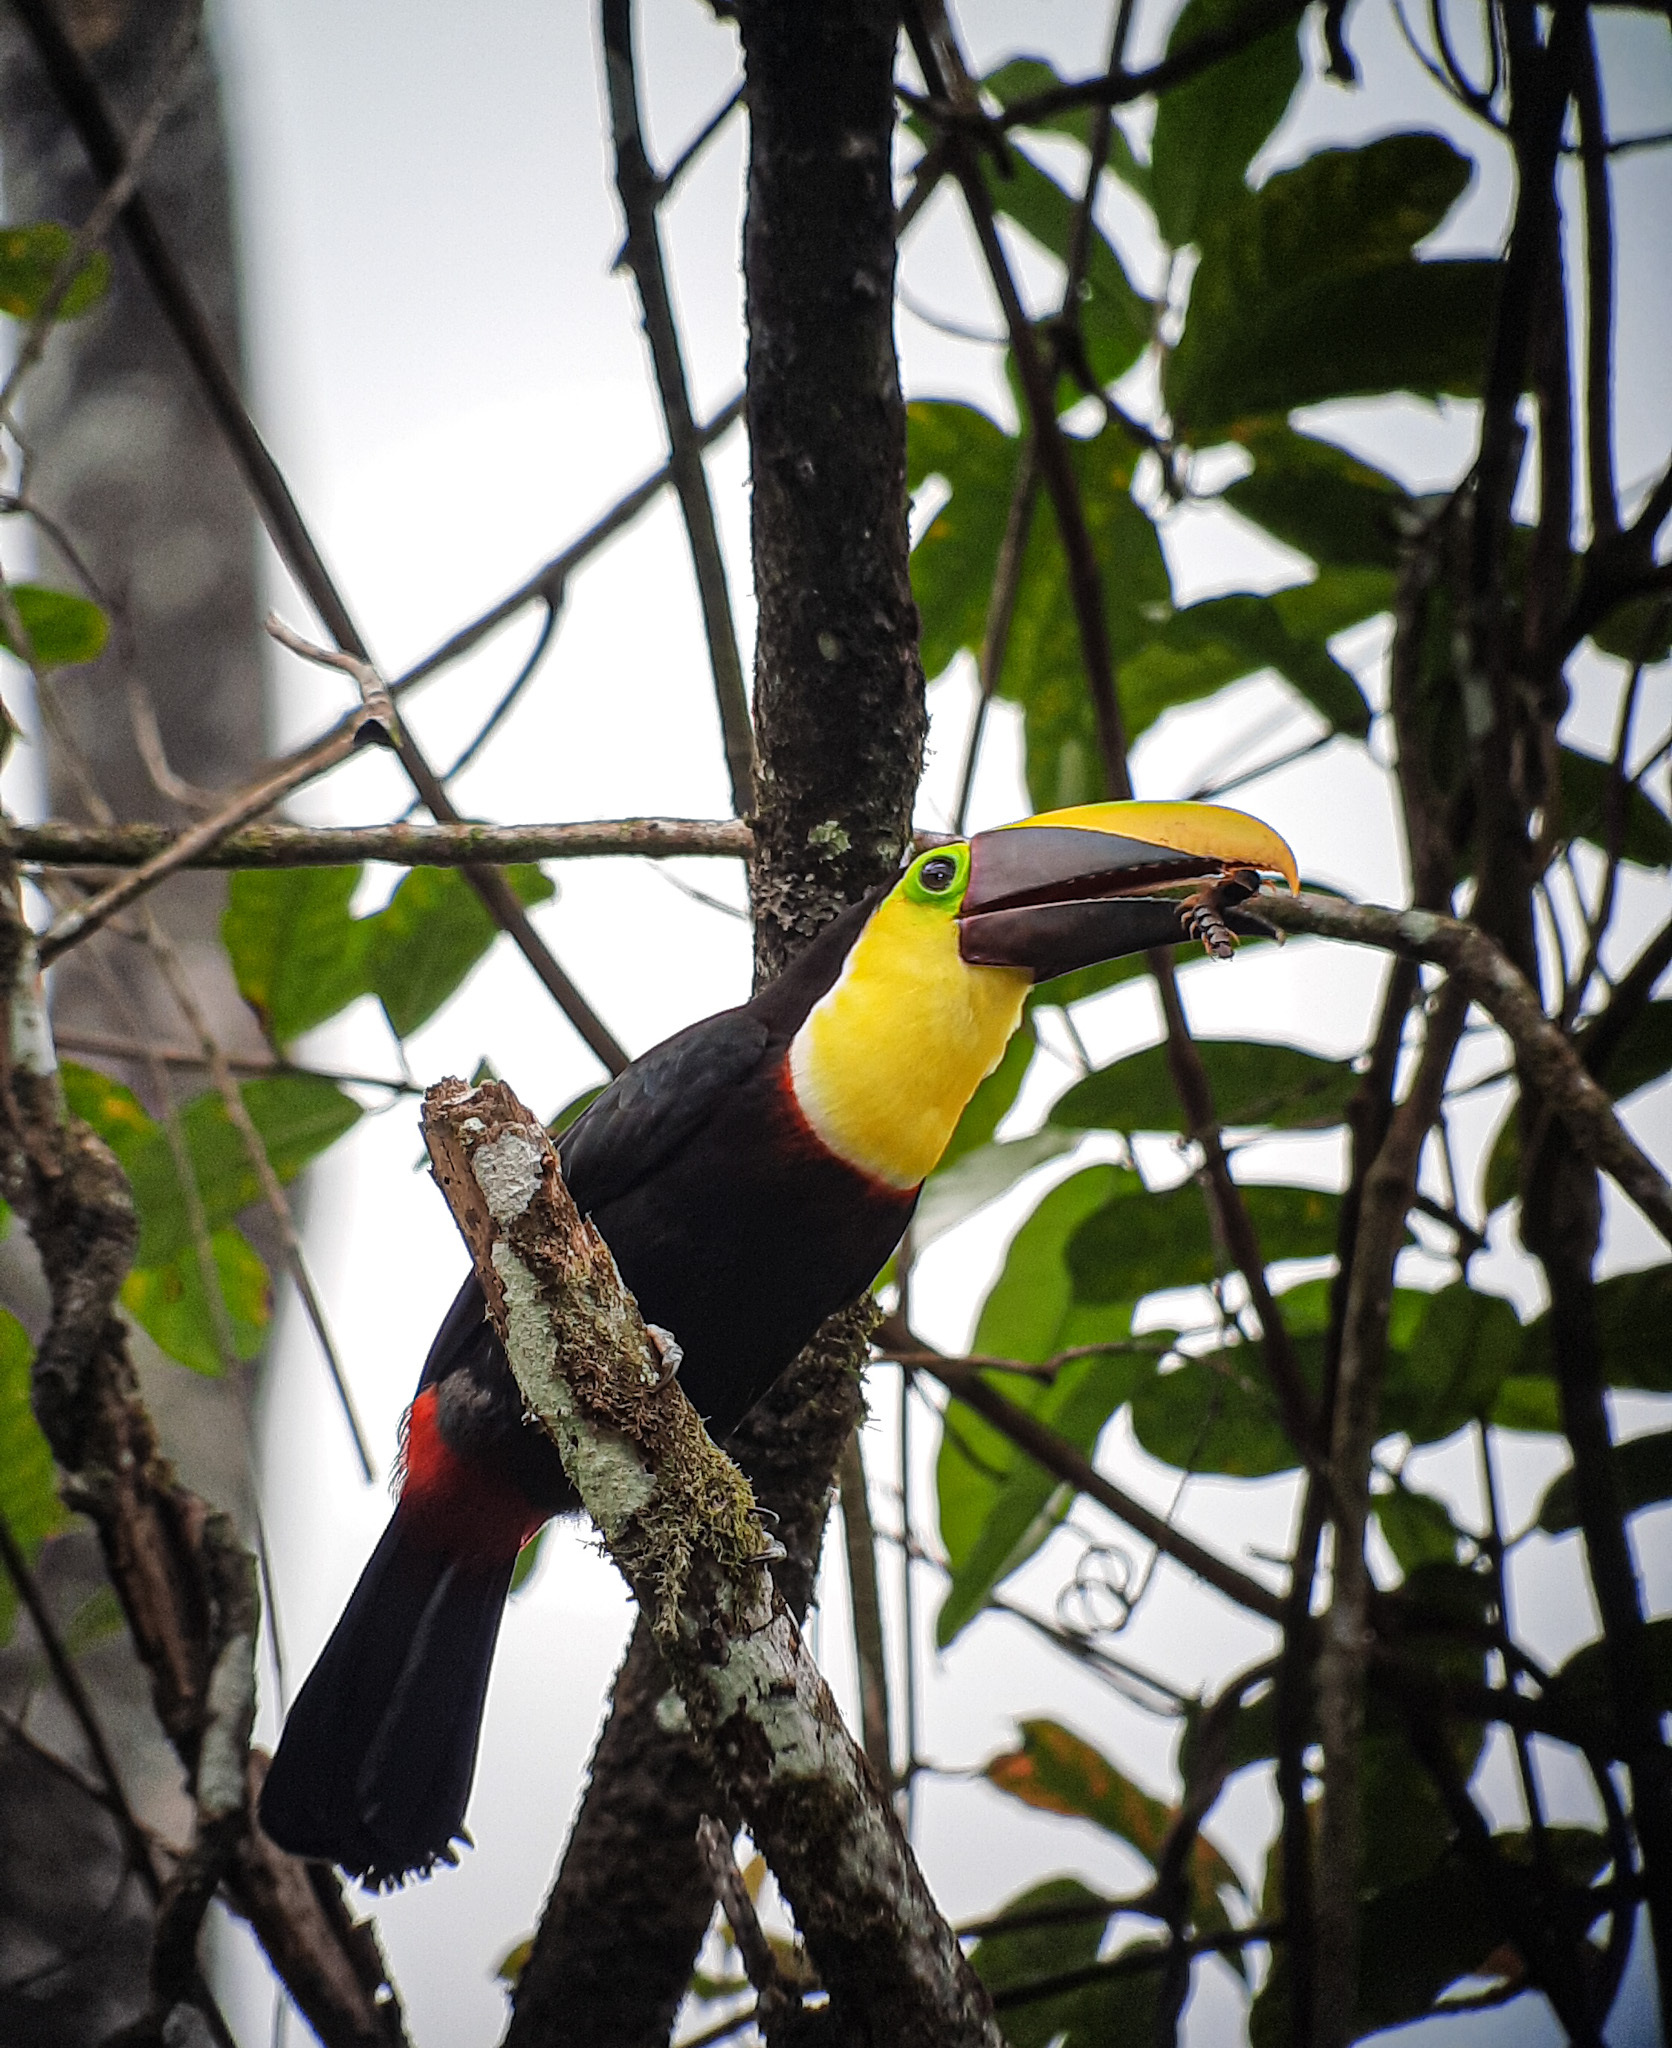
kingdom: Animalia
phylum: Chordata
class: Aves
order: Piciformes
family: Ramphastidae
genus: Ramphastos
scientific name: Ramphastos ambiguus
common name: Yellow-throated toucan
